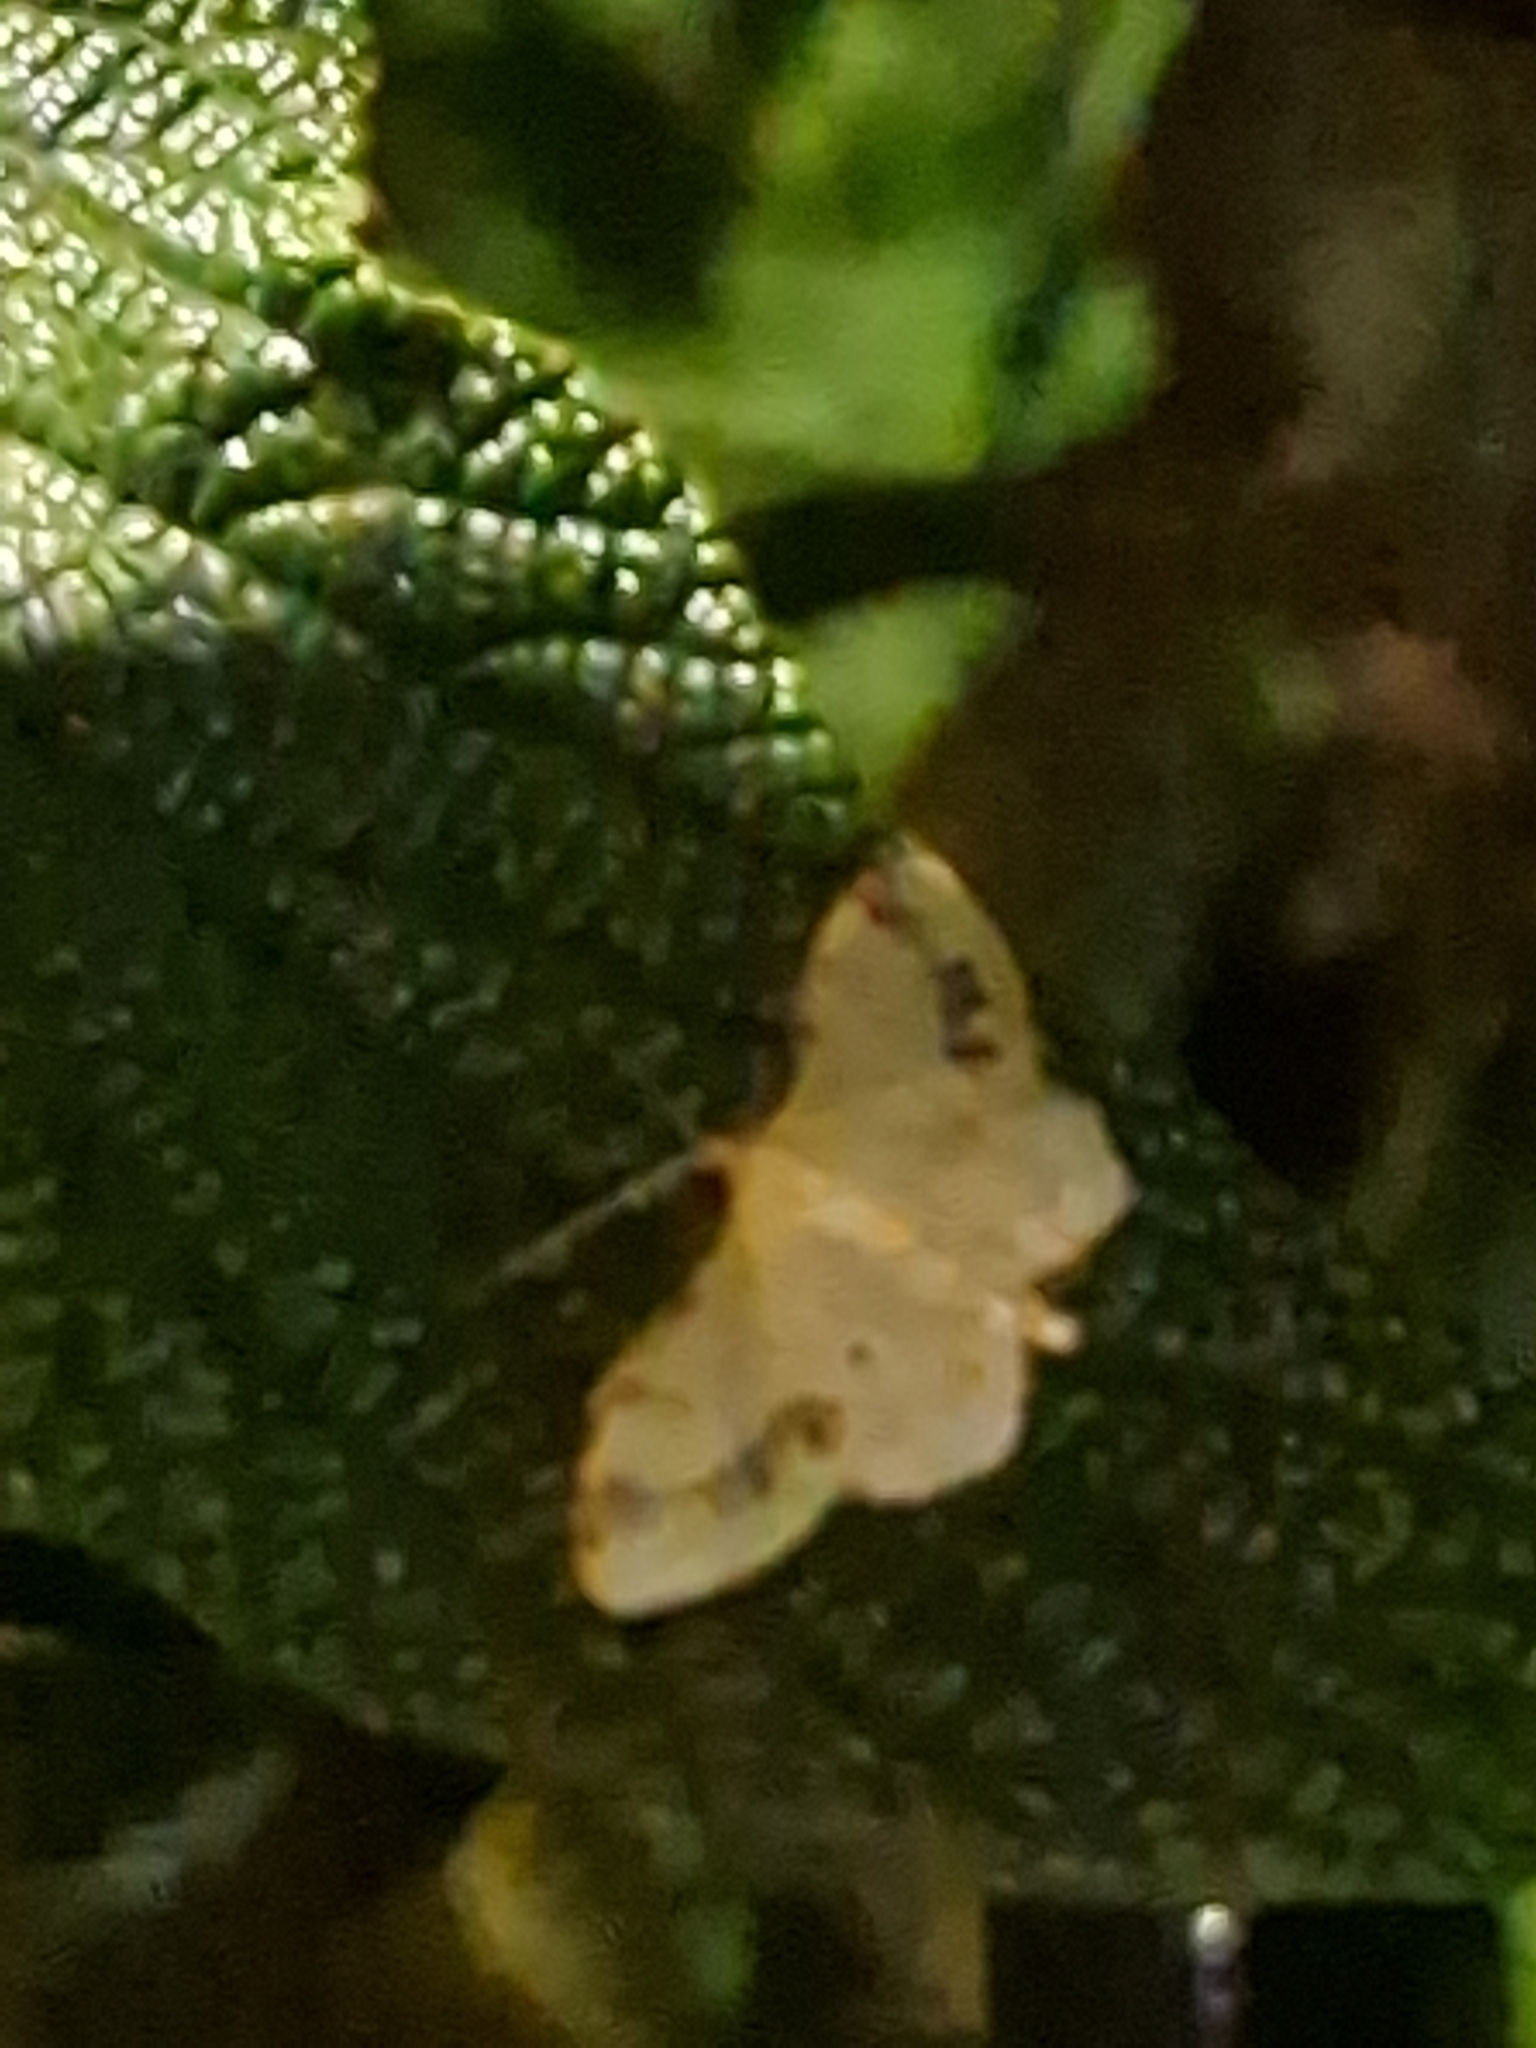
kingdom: Animalia
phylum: Arthropoda
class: Insecta
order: Lepidoptera
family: Geometridae
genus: Idaea
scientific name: Idaea trigeminata
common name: Treble brown spot
